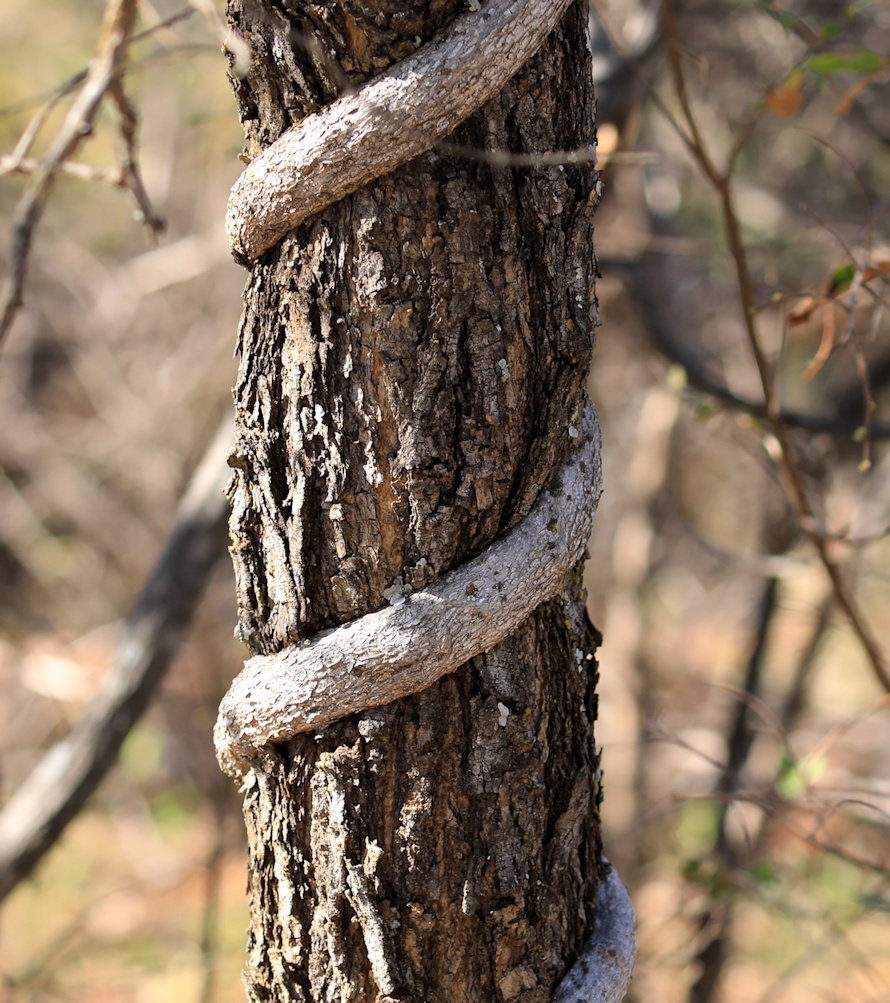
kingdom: Plantae
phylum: Tracheophyta
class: Magnoliopsida
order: Ranunculales
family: Menispermaceae
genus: Cocculus
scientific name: Cocculus hirsutus
